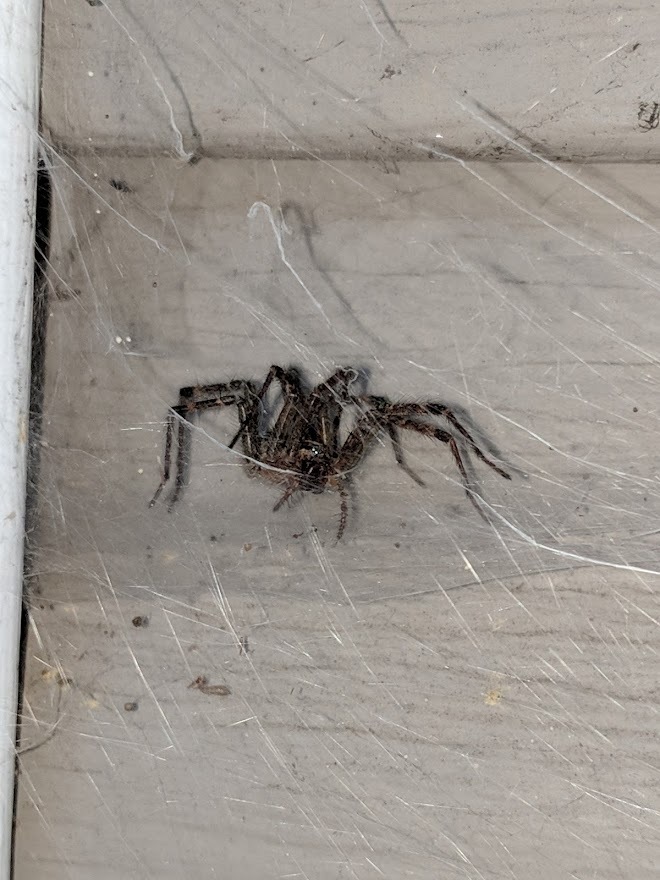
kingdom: Animalia
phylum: Arthropoda
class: Arachnida
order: Araneae
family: Agelenidae
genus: Agelenopsis
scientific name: Agelenopsis
